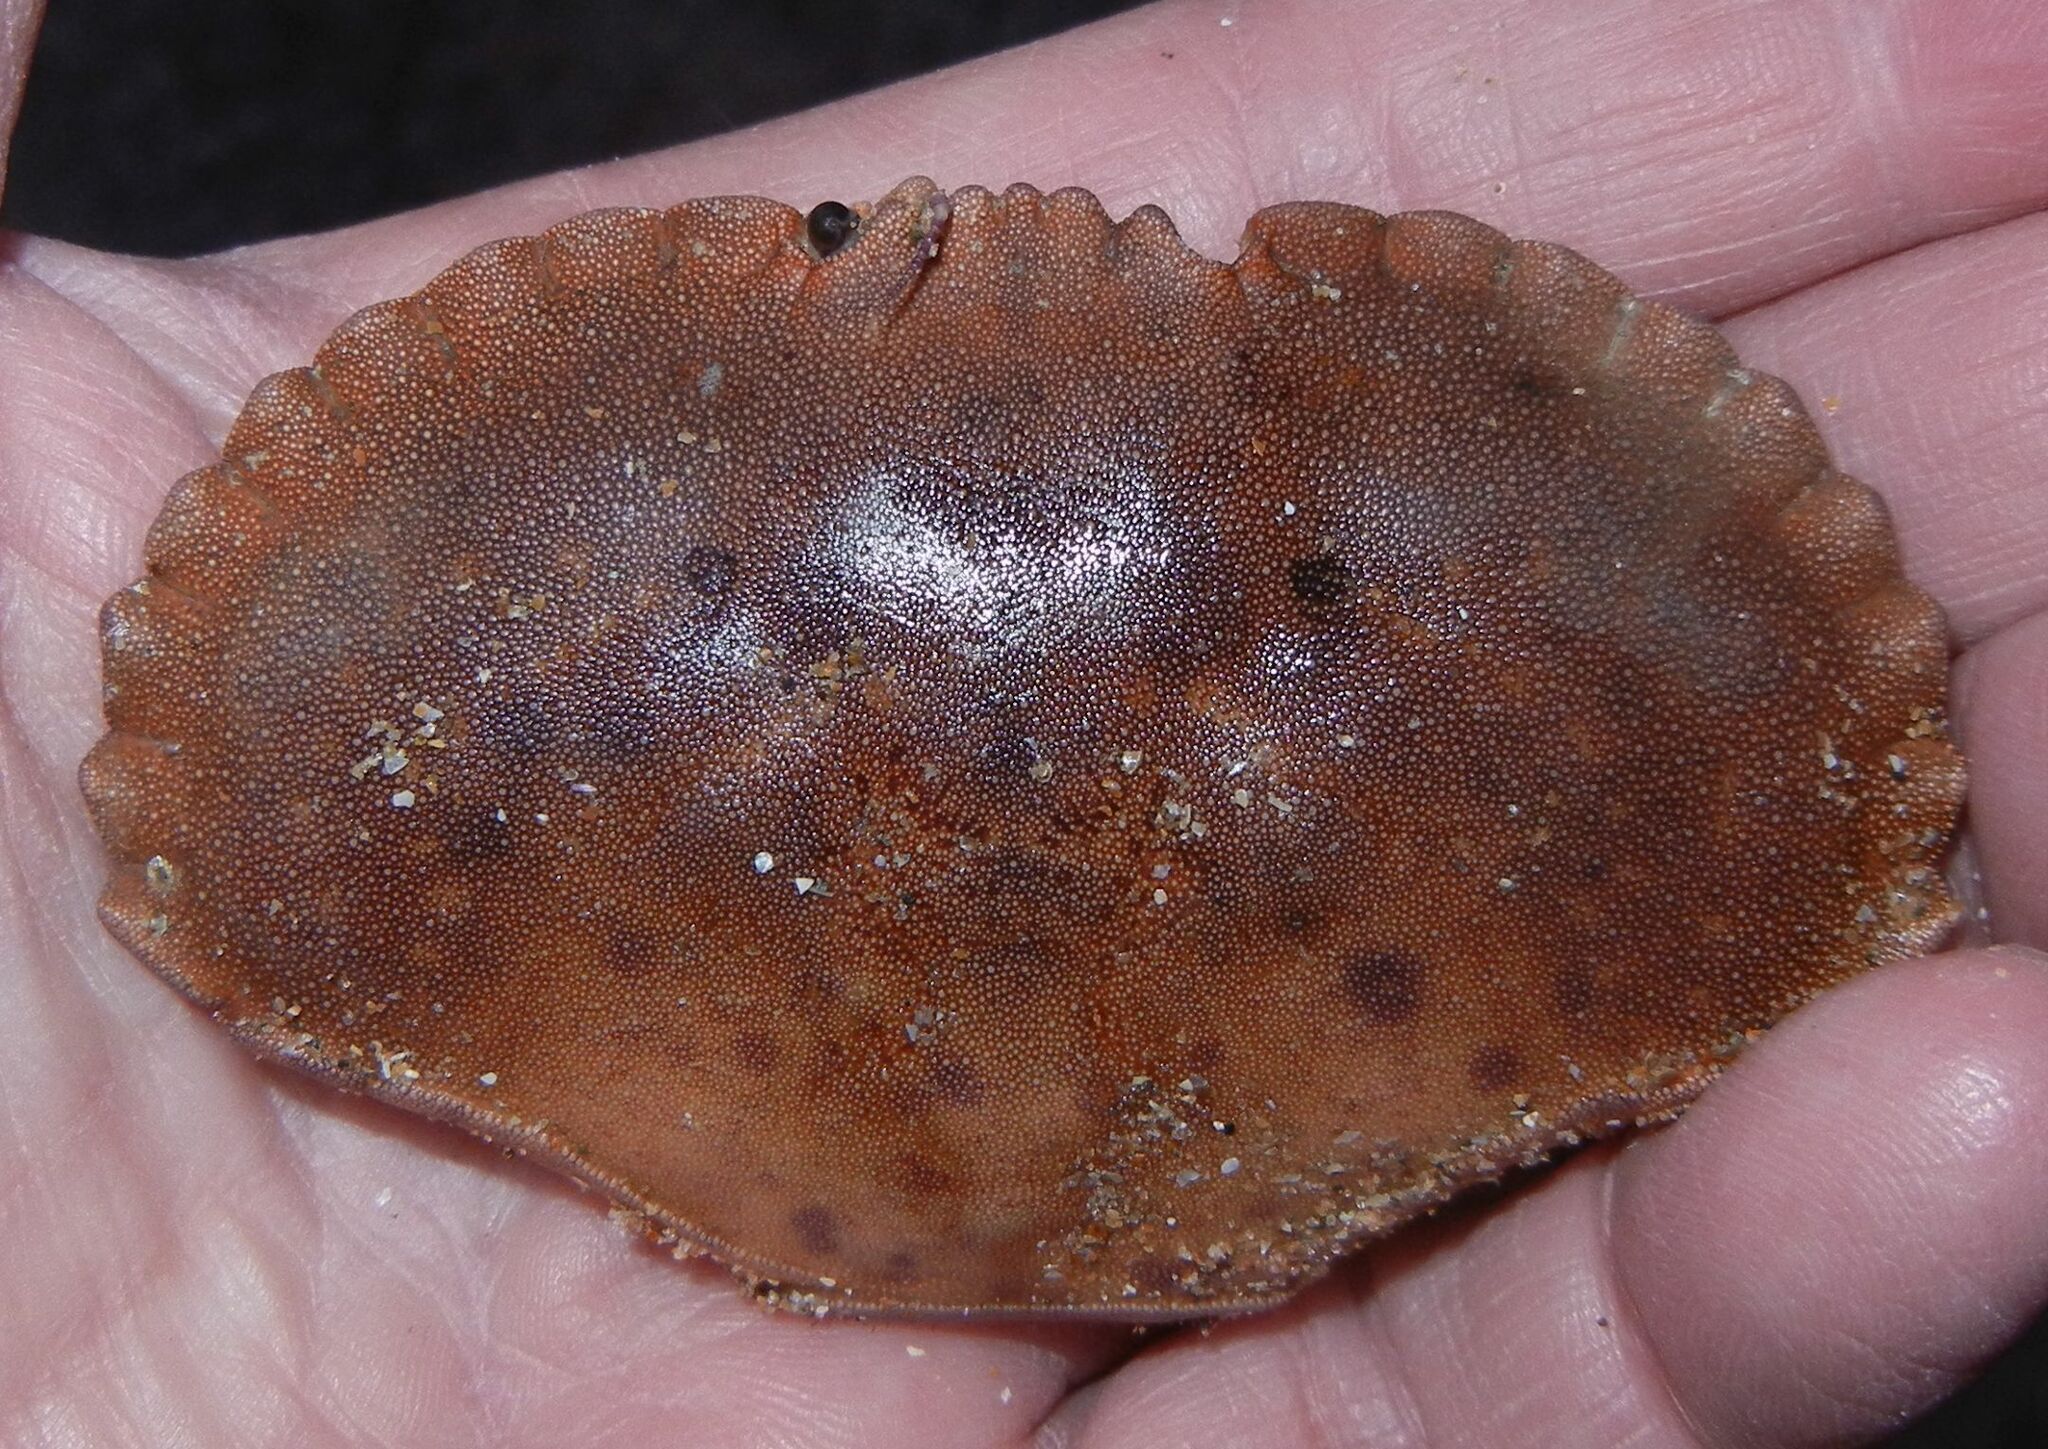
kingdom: Animalia
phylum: Arthropoda
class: Malacostraca
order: Decapoda
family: Cancridae
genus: Cancer
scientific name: Cancer pagurus
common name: Edible crab
